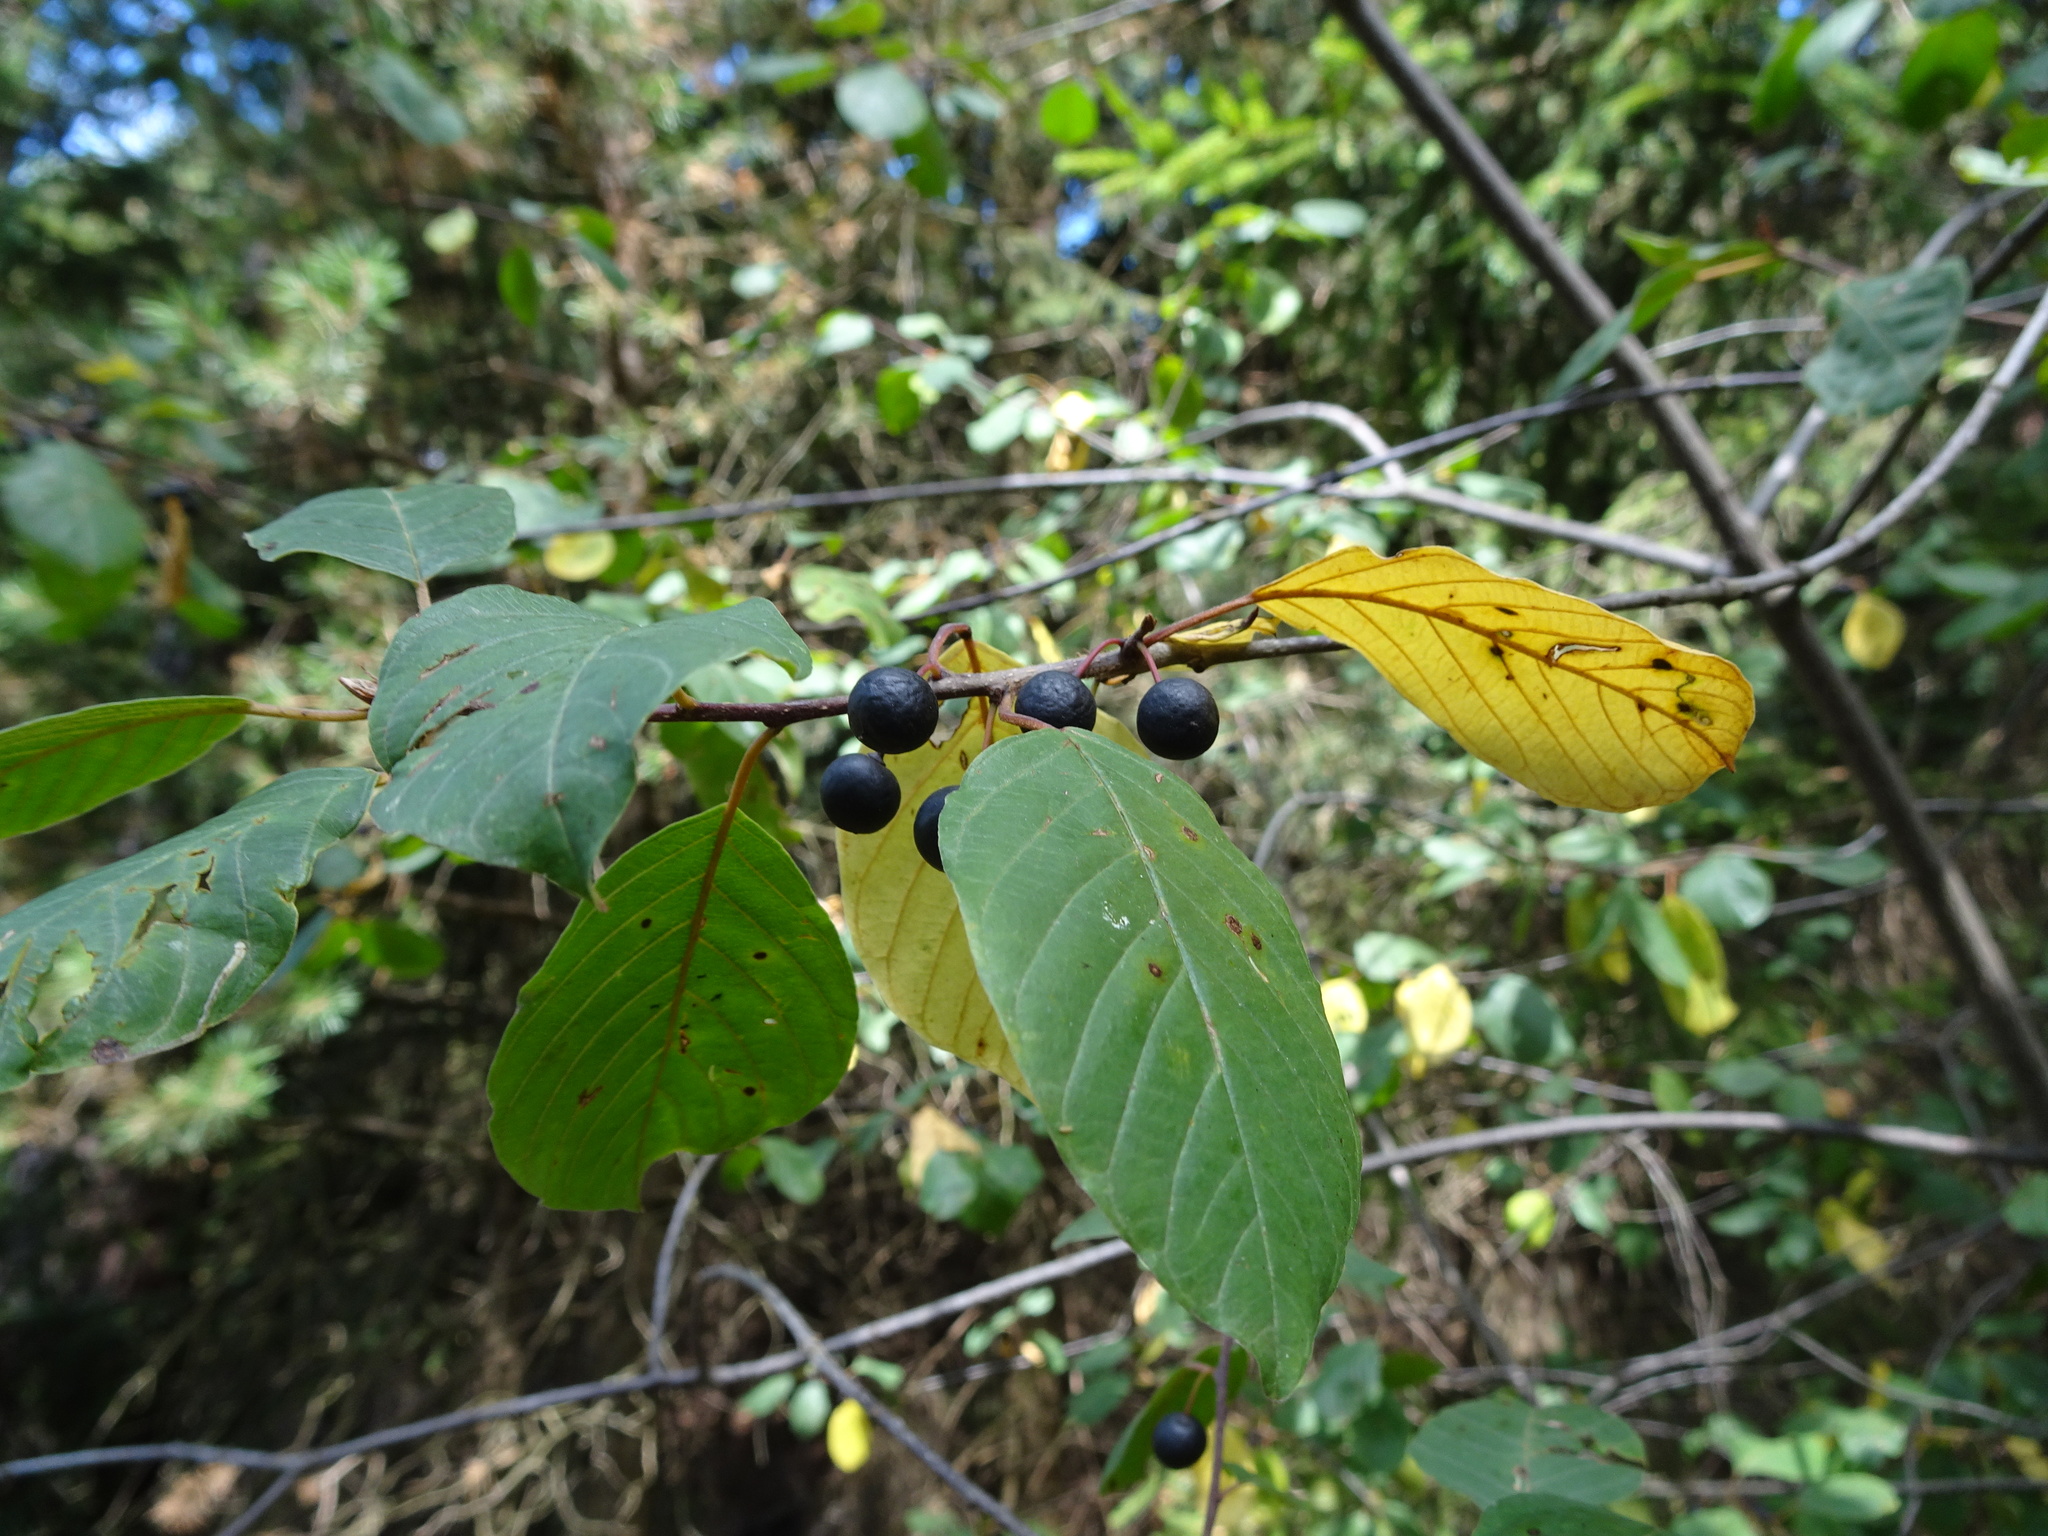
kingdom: Plantae
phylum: Tracheophyta
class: Magnoliopsida
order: Rosales
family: Rhamnaceae
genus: Frangula
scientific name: Frangula alnus
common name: Alder buckthorn
